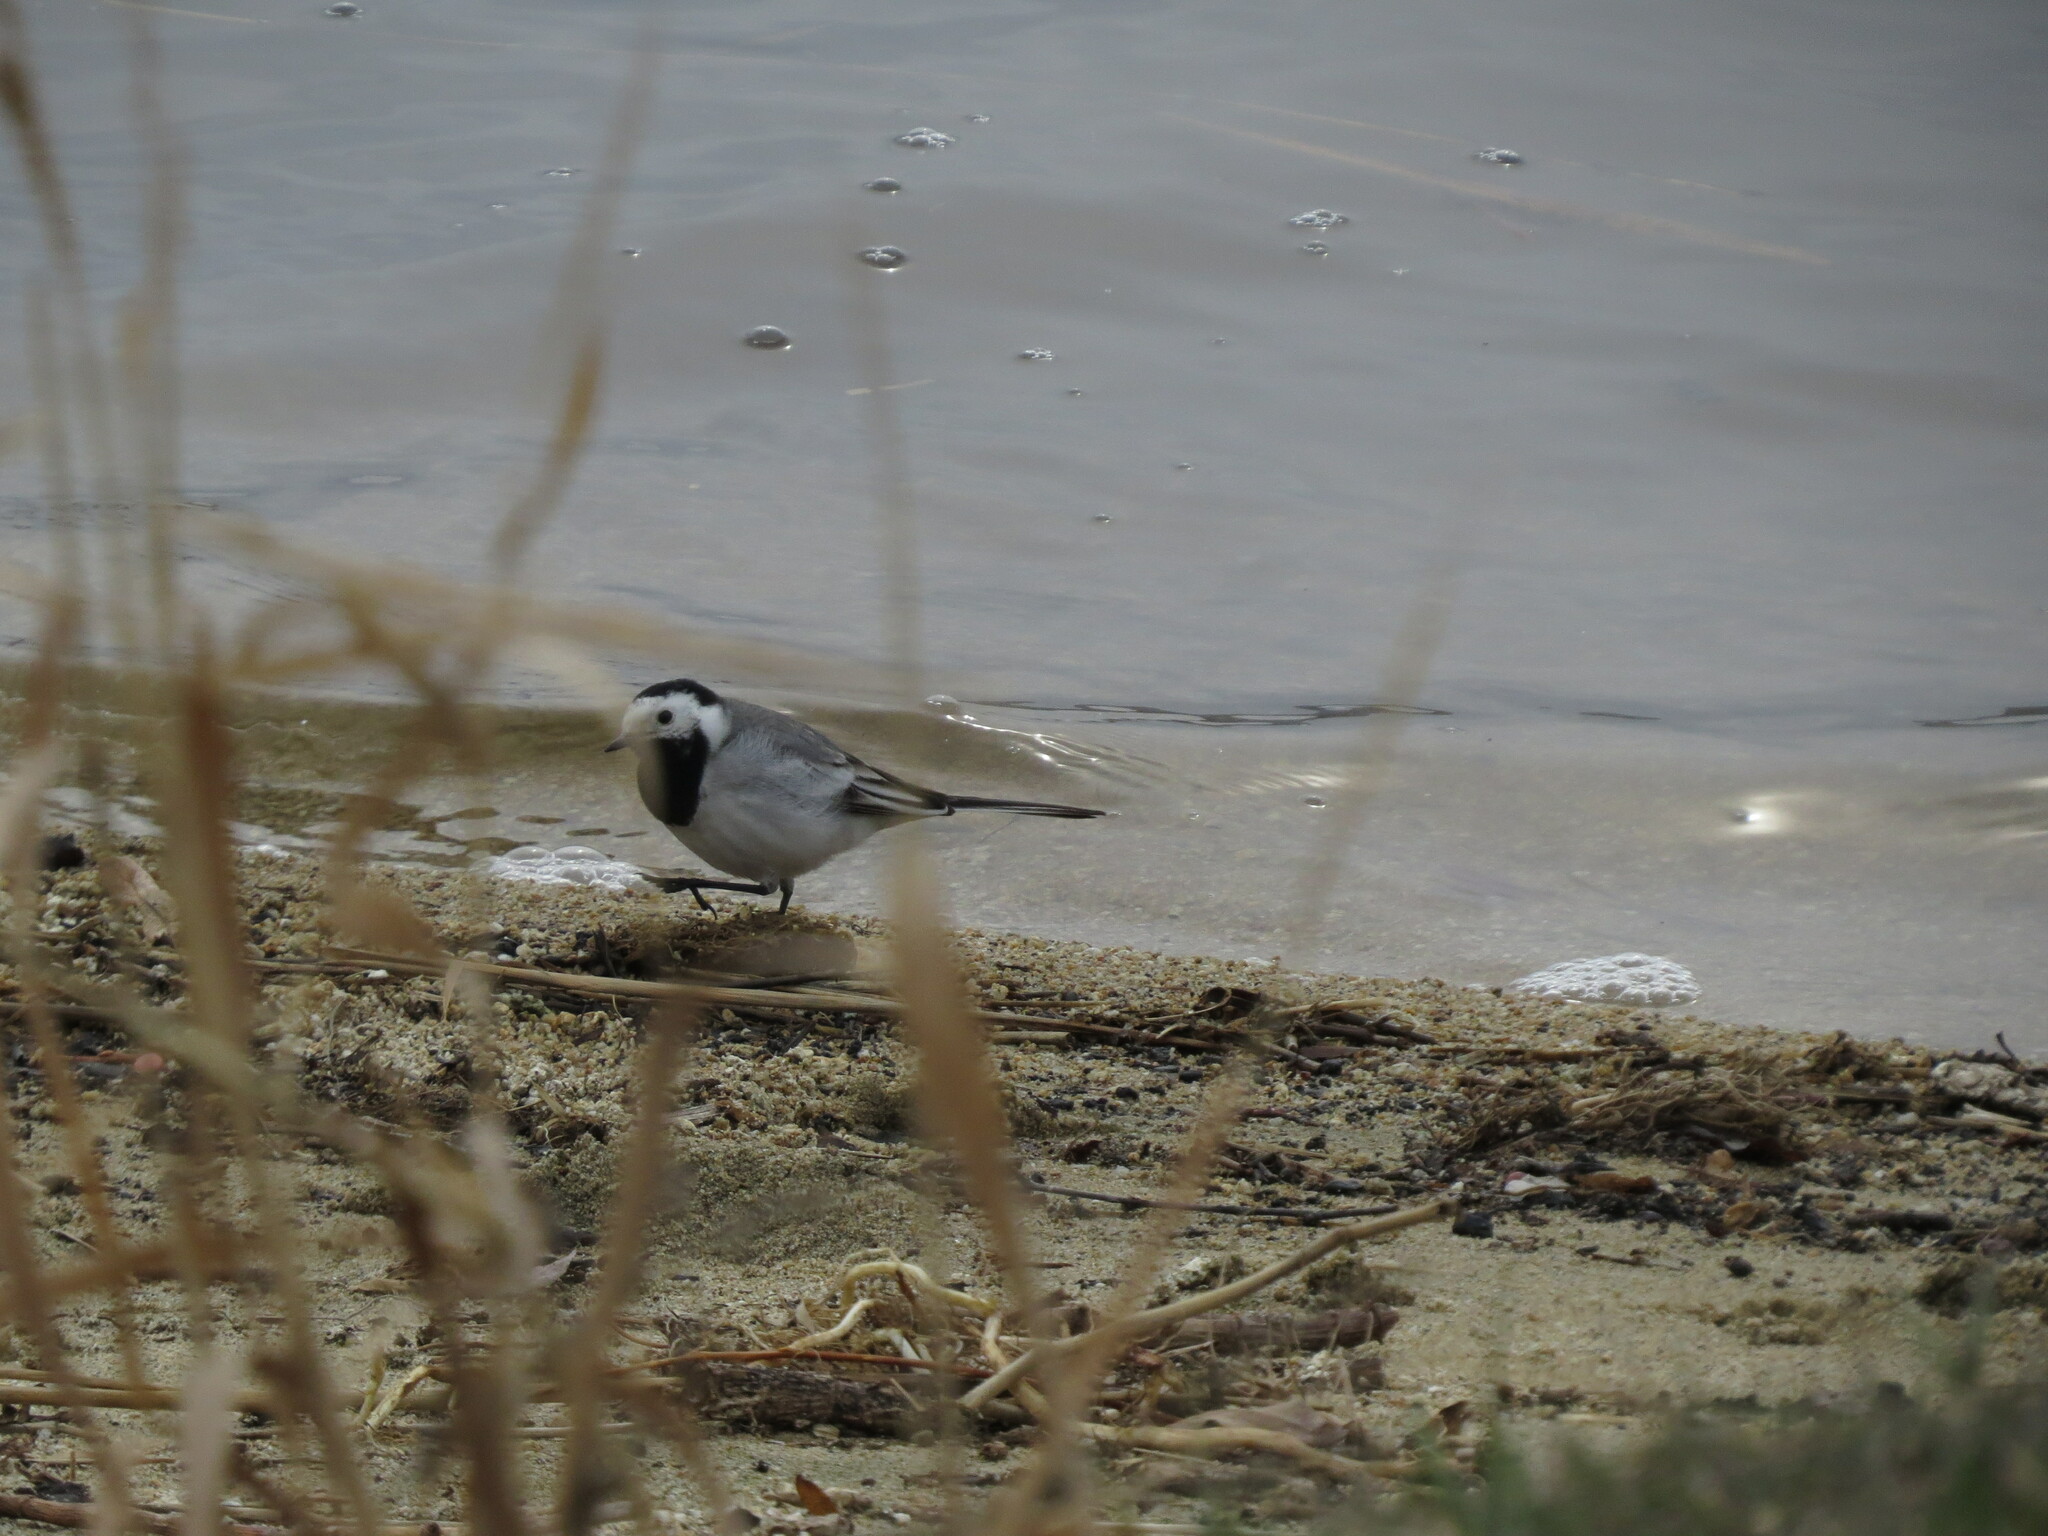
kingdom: Animalia
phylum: Chordata
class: Aves
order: Passeriformes
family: Motacillidae
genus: Motacilla
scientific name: Motacilla alba
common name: White wagtail
